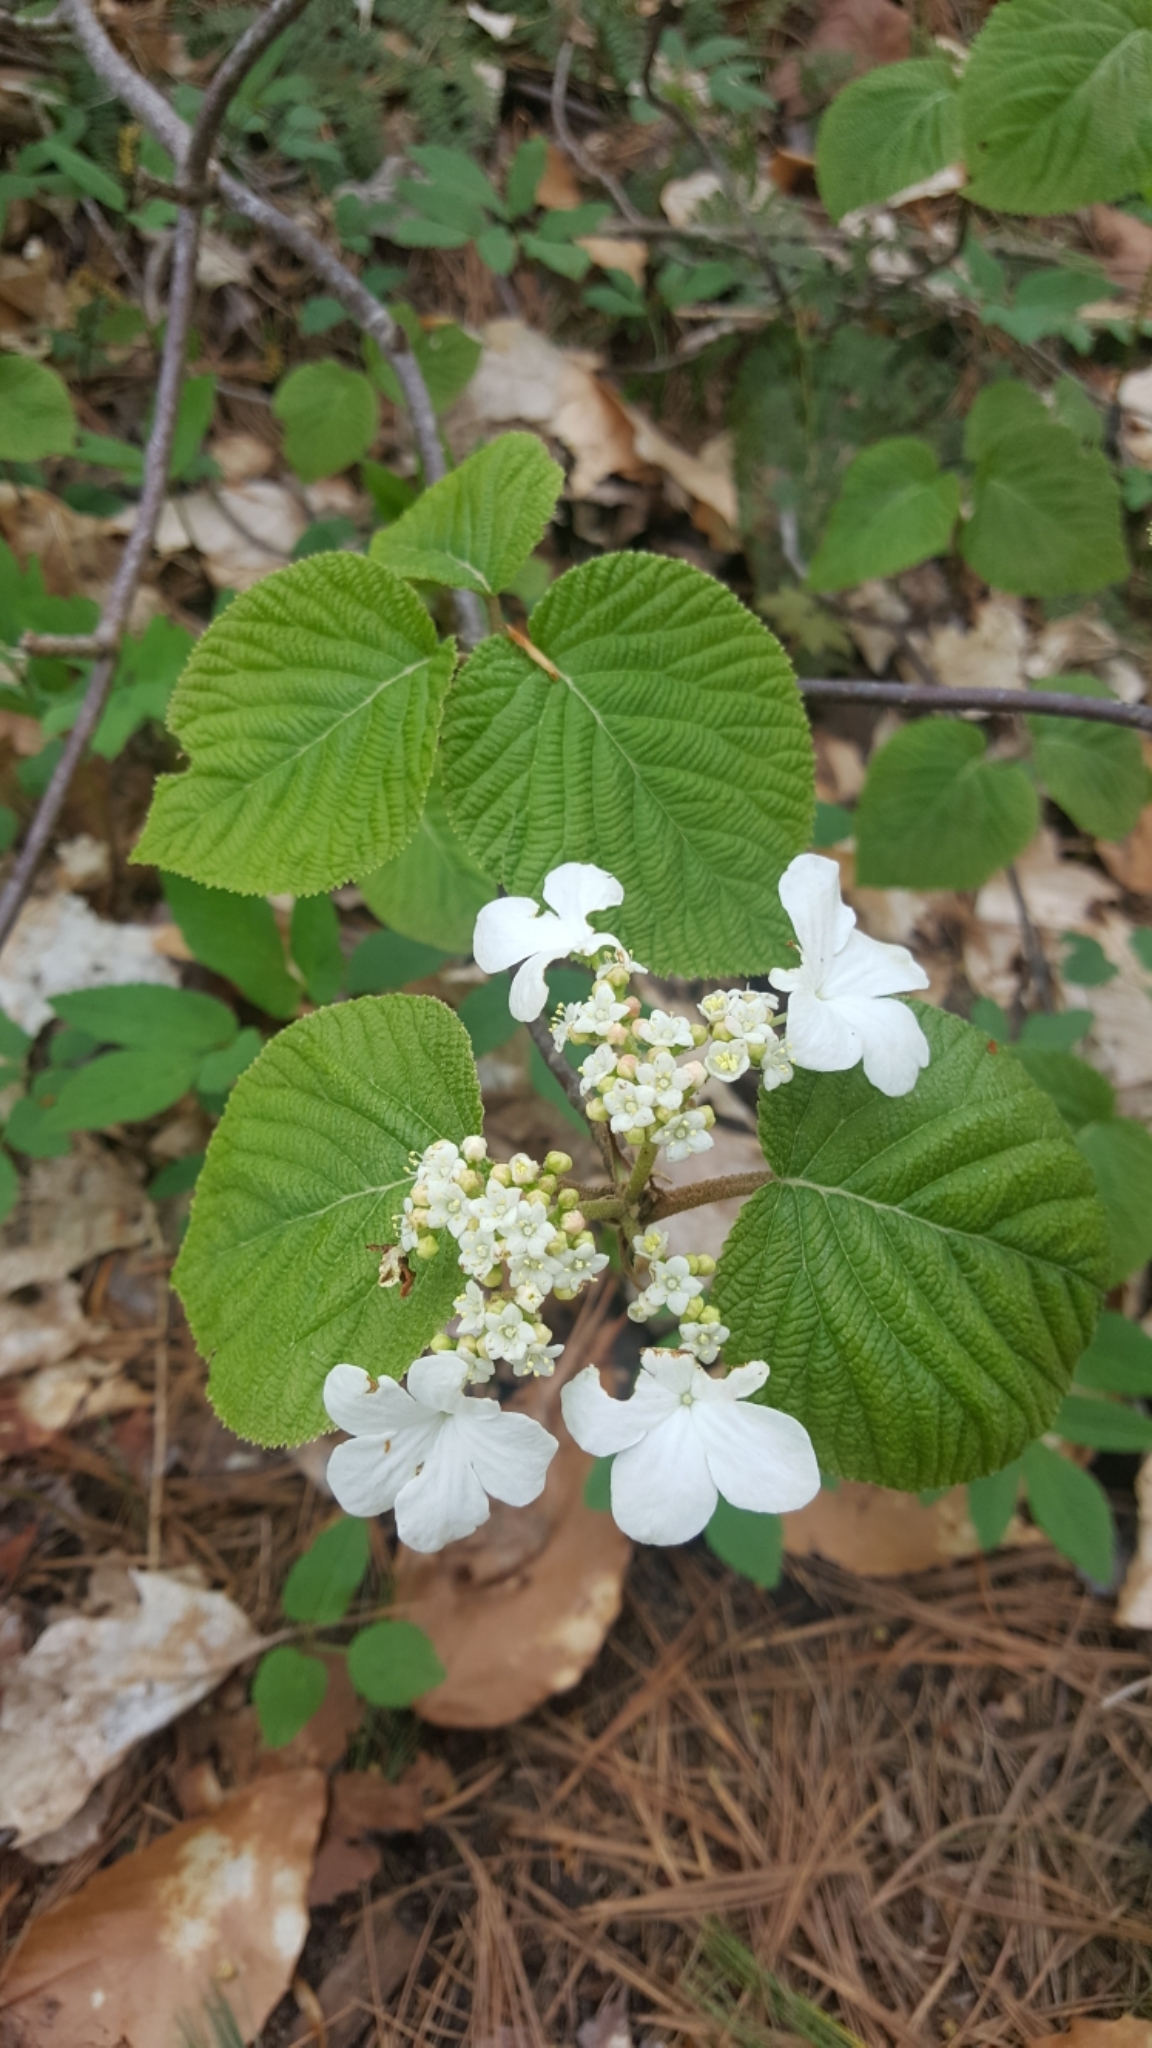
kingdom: Plantae
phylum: Tracheophyta
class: Magnoliopsida
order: Dipsacales
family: Viburnaceae
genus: Viburnum
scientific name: Viburnum lantanoides
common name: Hobblebush
